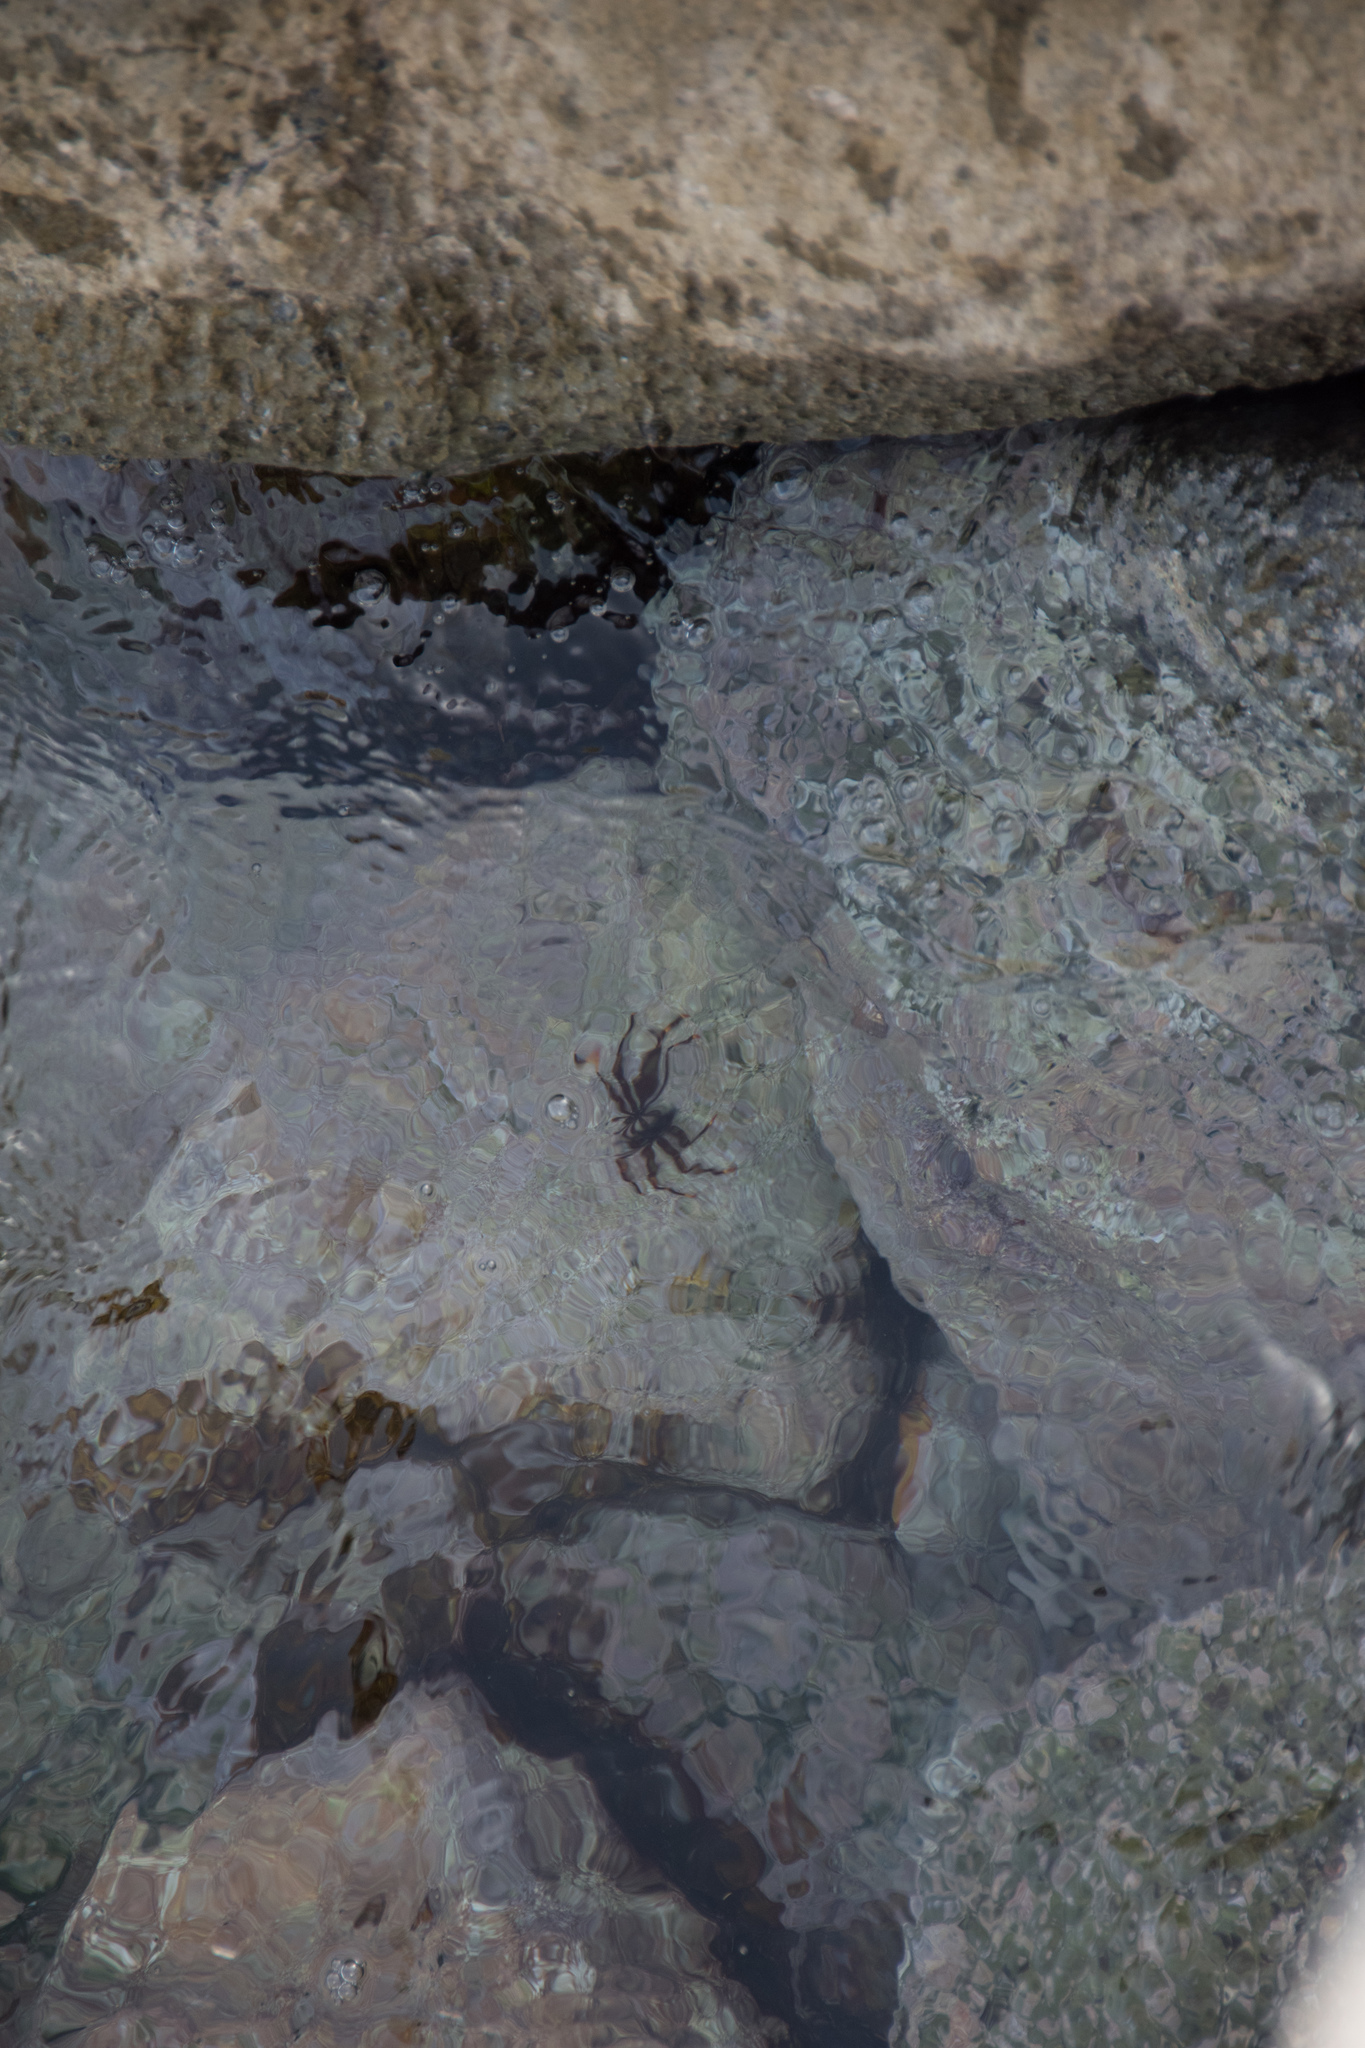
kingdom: Animalia
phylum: Arthropoda
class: Malacostraca
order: Decapoda
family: Percnidae
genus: Percnon
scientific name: Percnon gibbesi
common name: Nimble spray crab
